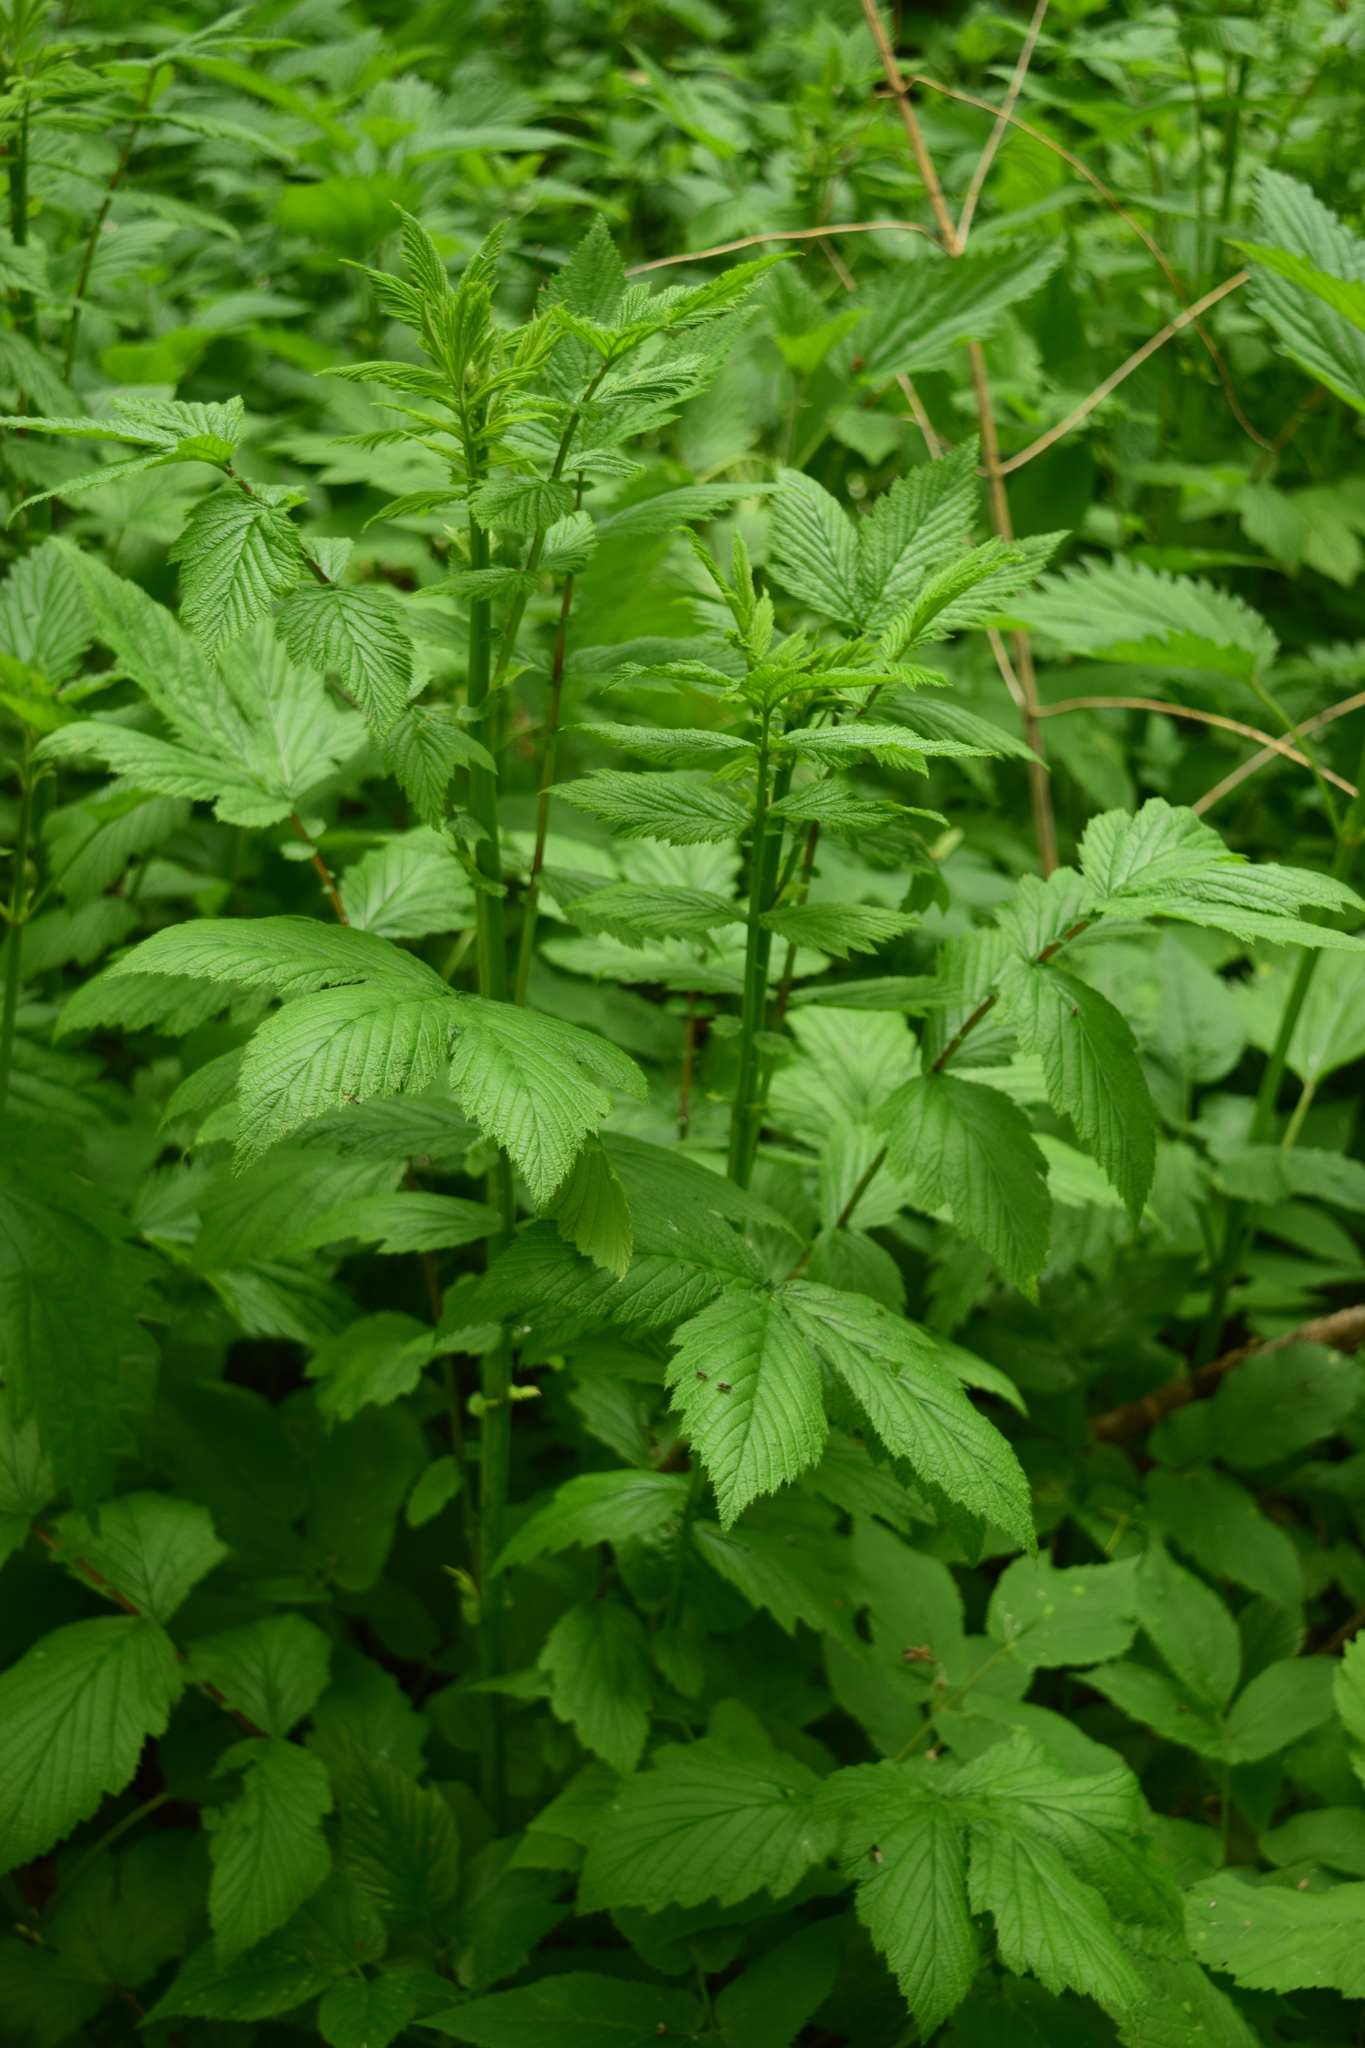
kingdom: Plantae
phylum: Tracheophyta
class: Magnoliopsida
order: Rosales
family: Rosaceae
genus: Filipendula
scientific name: Filipendula ulmaria
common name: Meadowsweet
